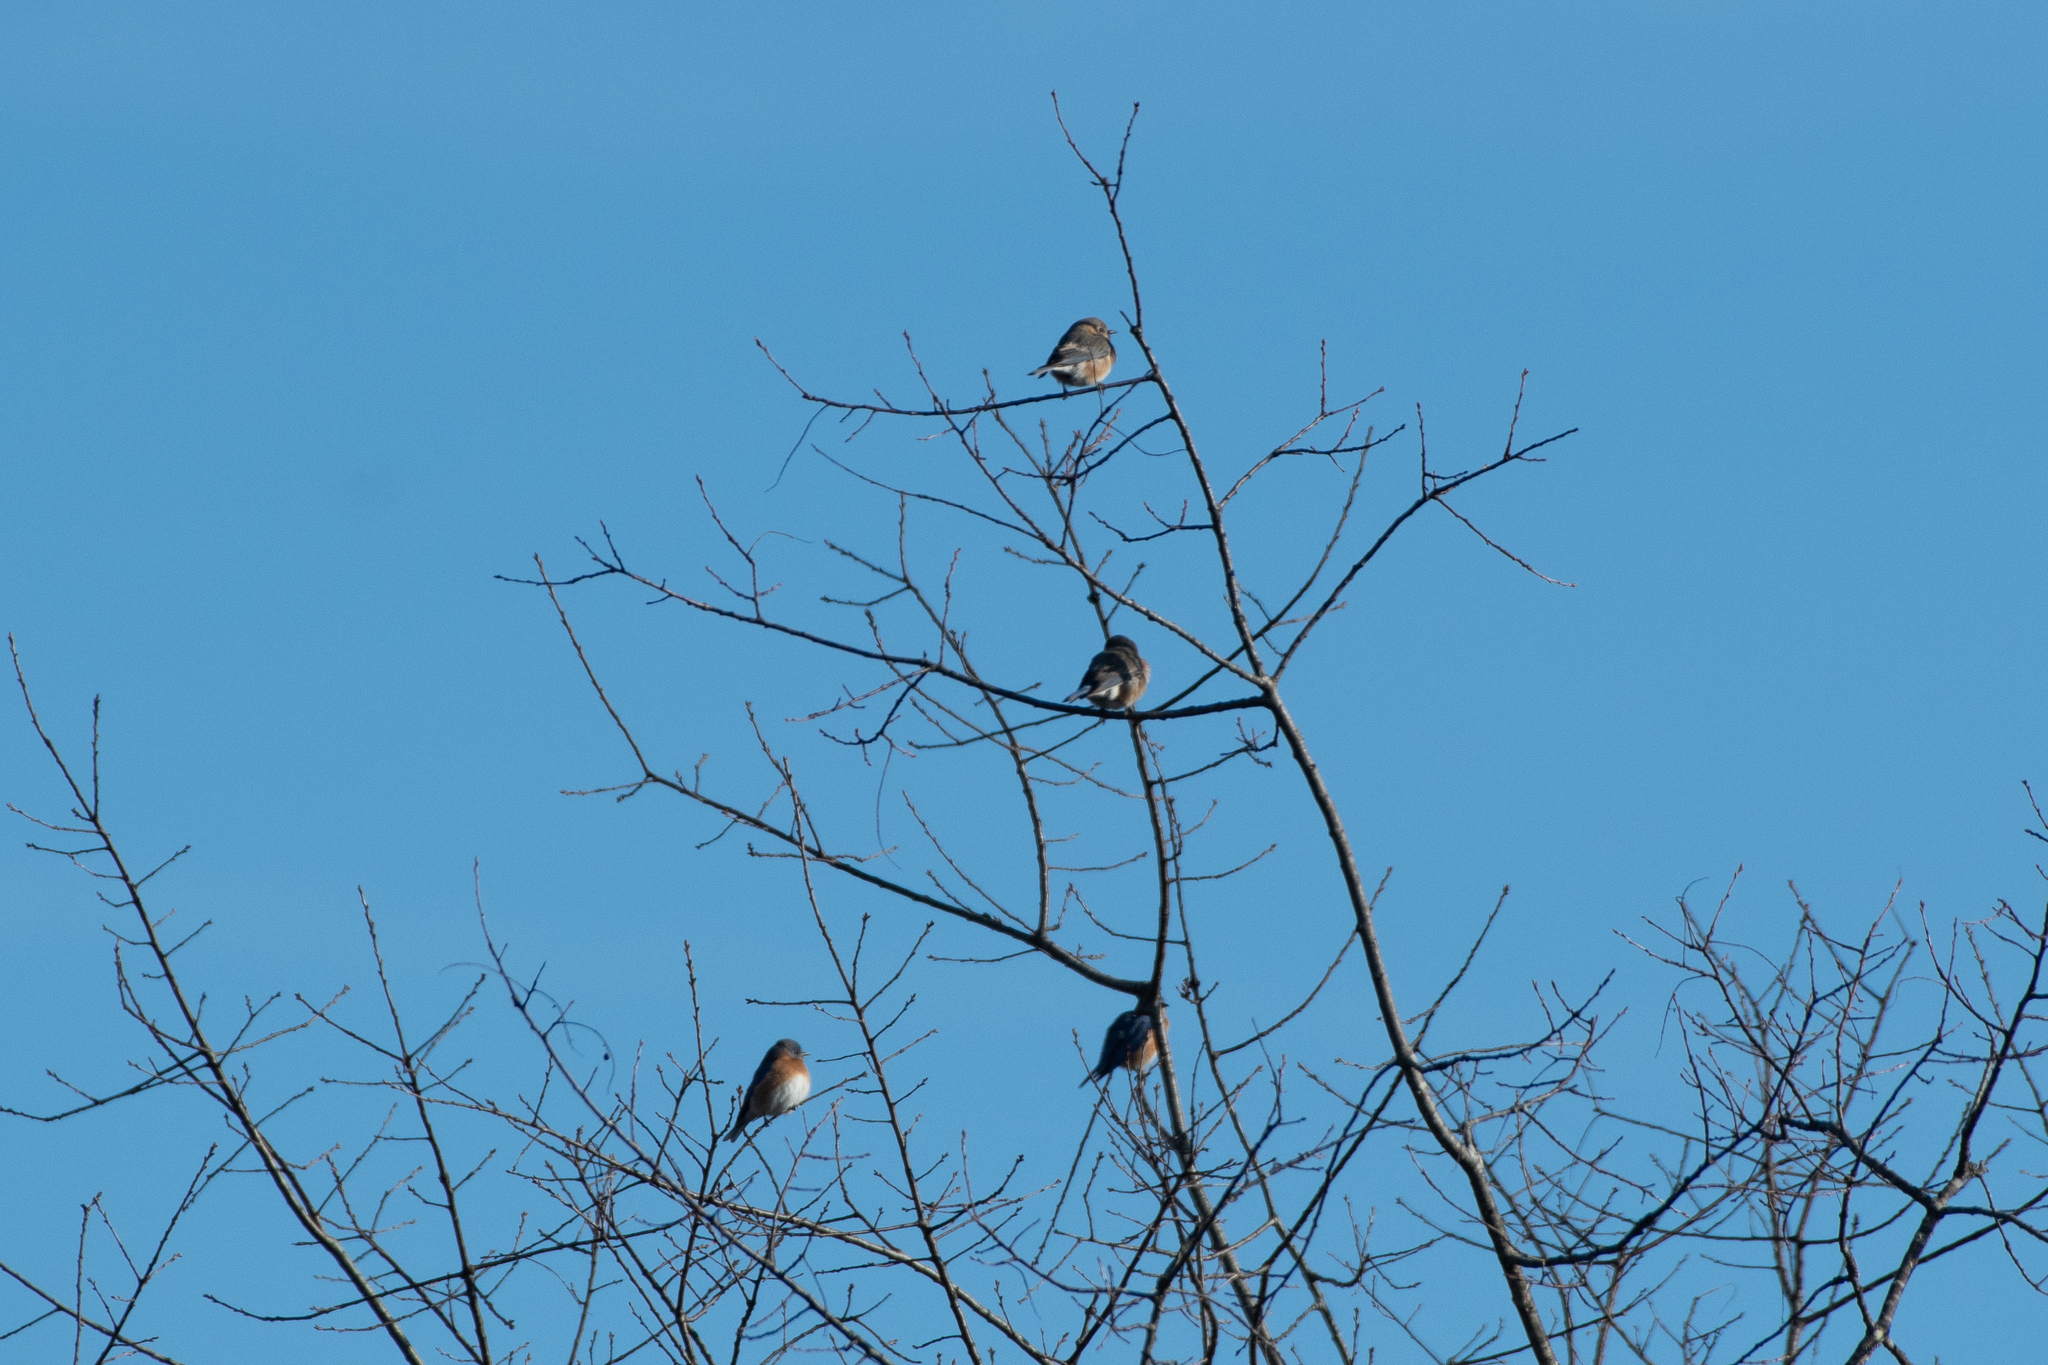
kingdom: Animalia
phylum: Chordata
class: Aves
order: Passeriformes
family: Turdidae
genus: Sialia
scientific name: Sialia sialis
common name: Eastern bluebird
